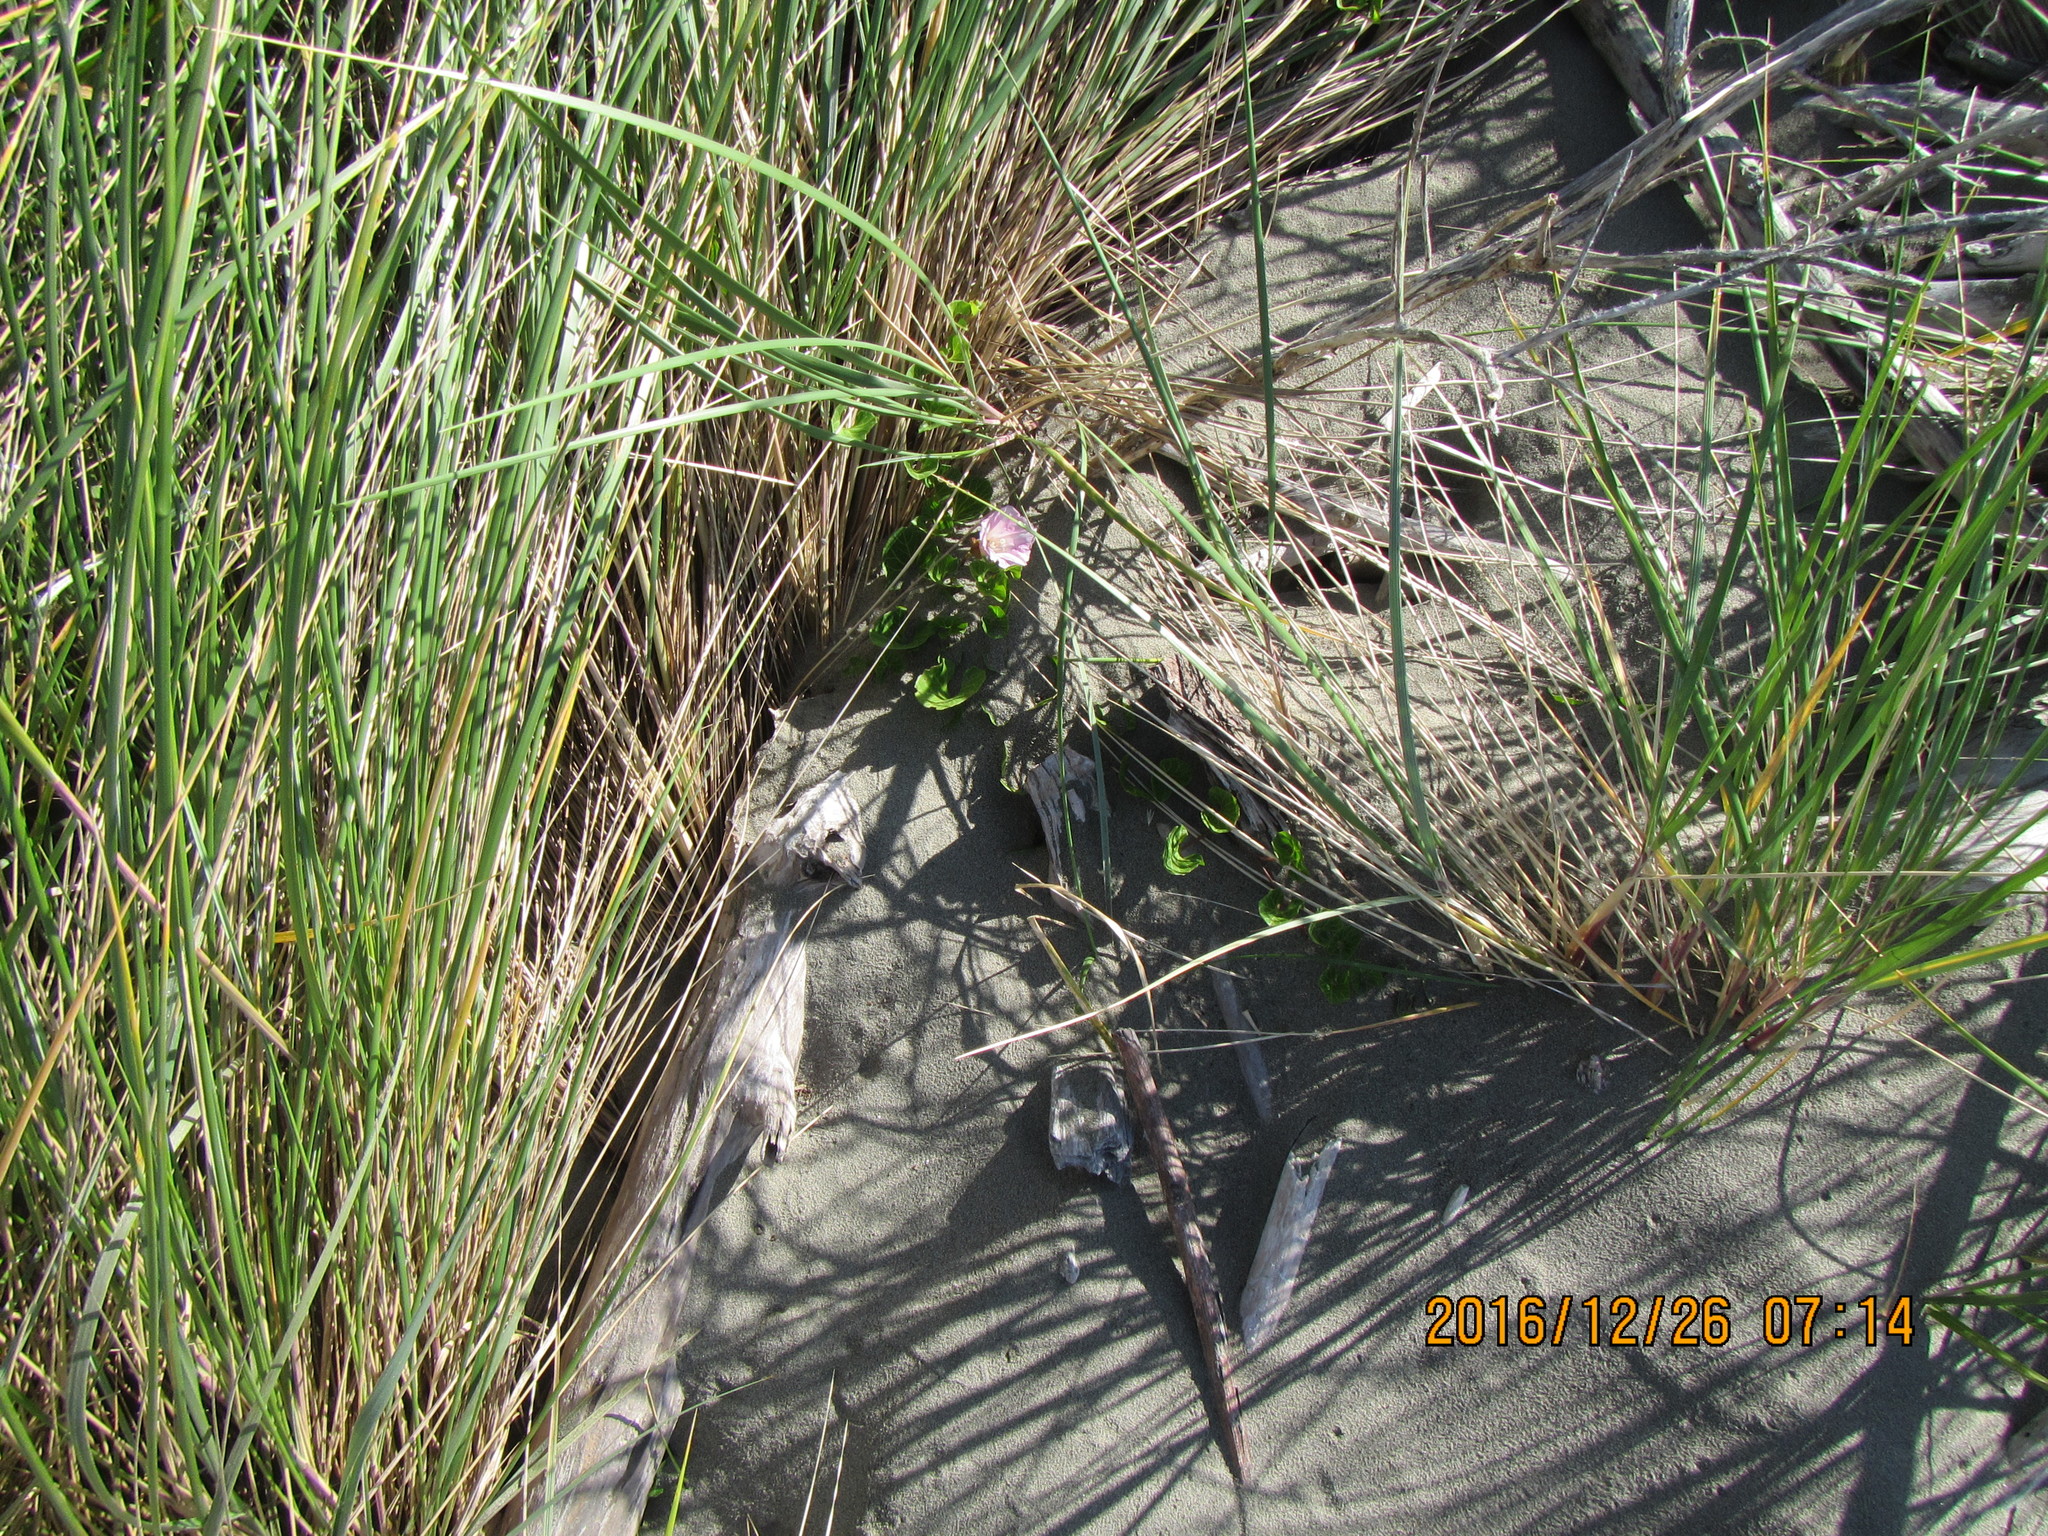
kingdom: Plantae
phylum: Tracheophyta
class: Magnoliopsida
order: Solanales
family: Convolvulaceae
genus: Calystegia
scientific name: Calystegia soldanella
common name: Sea bindweed
